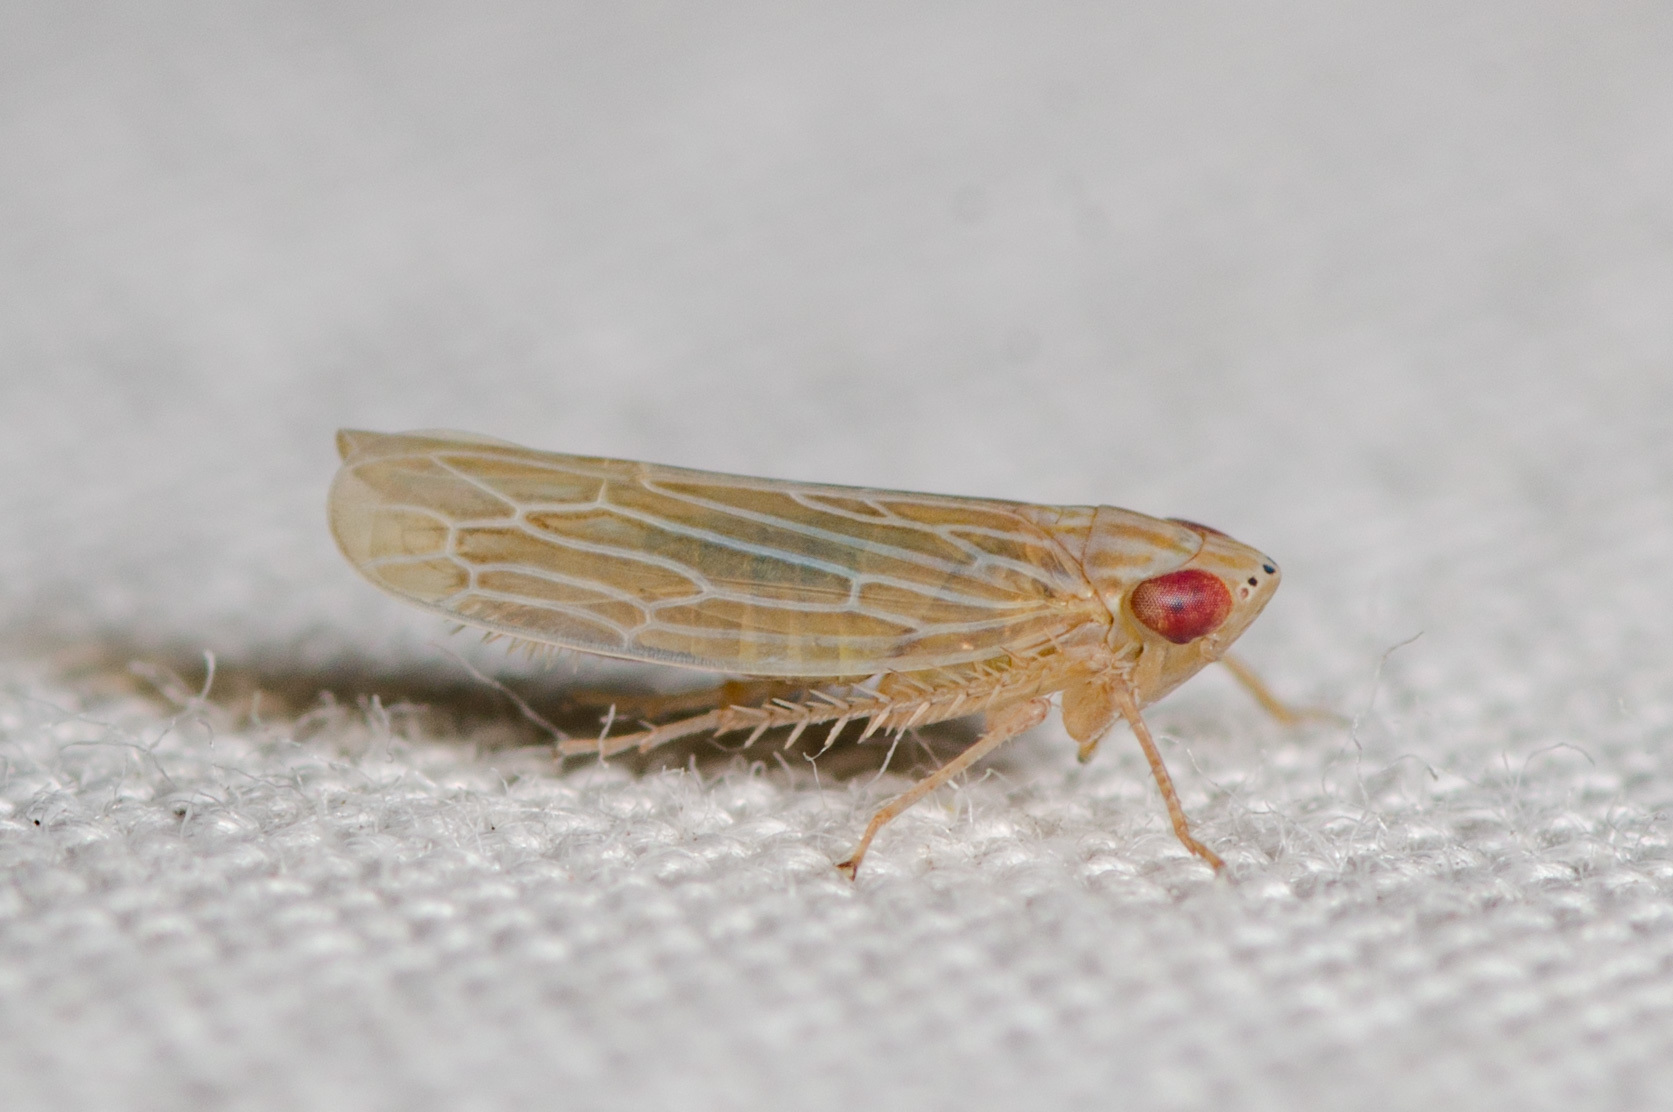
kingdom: Animalia
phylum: Arthropoda
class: Insecta
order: Hemiptera
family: Cicadellidae
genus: Graminella
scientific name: Graminella plana
